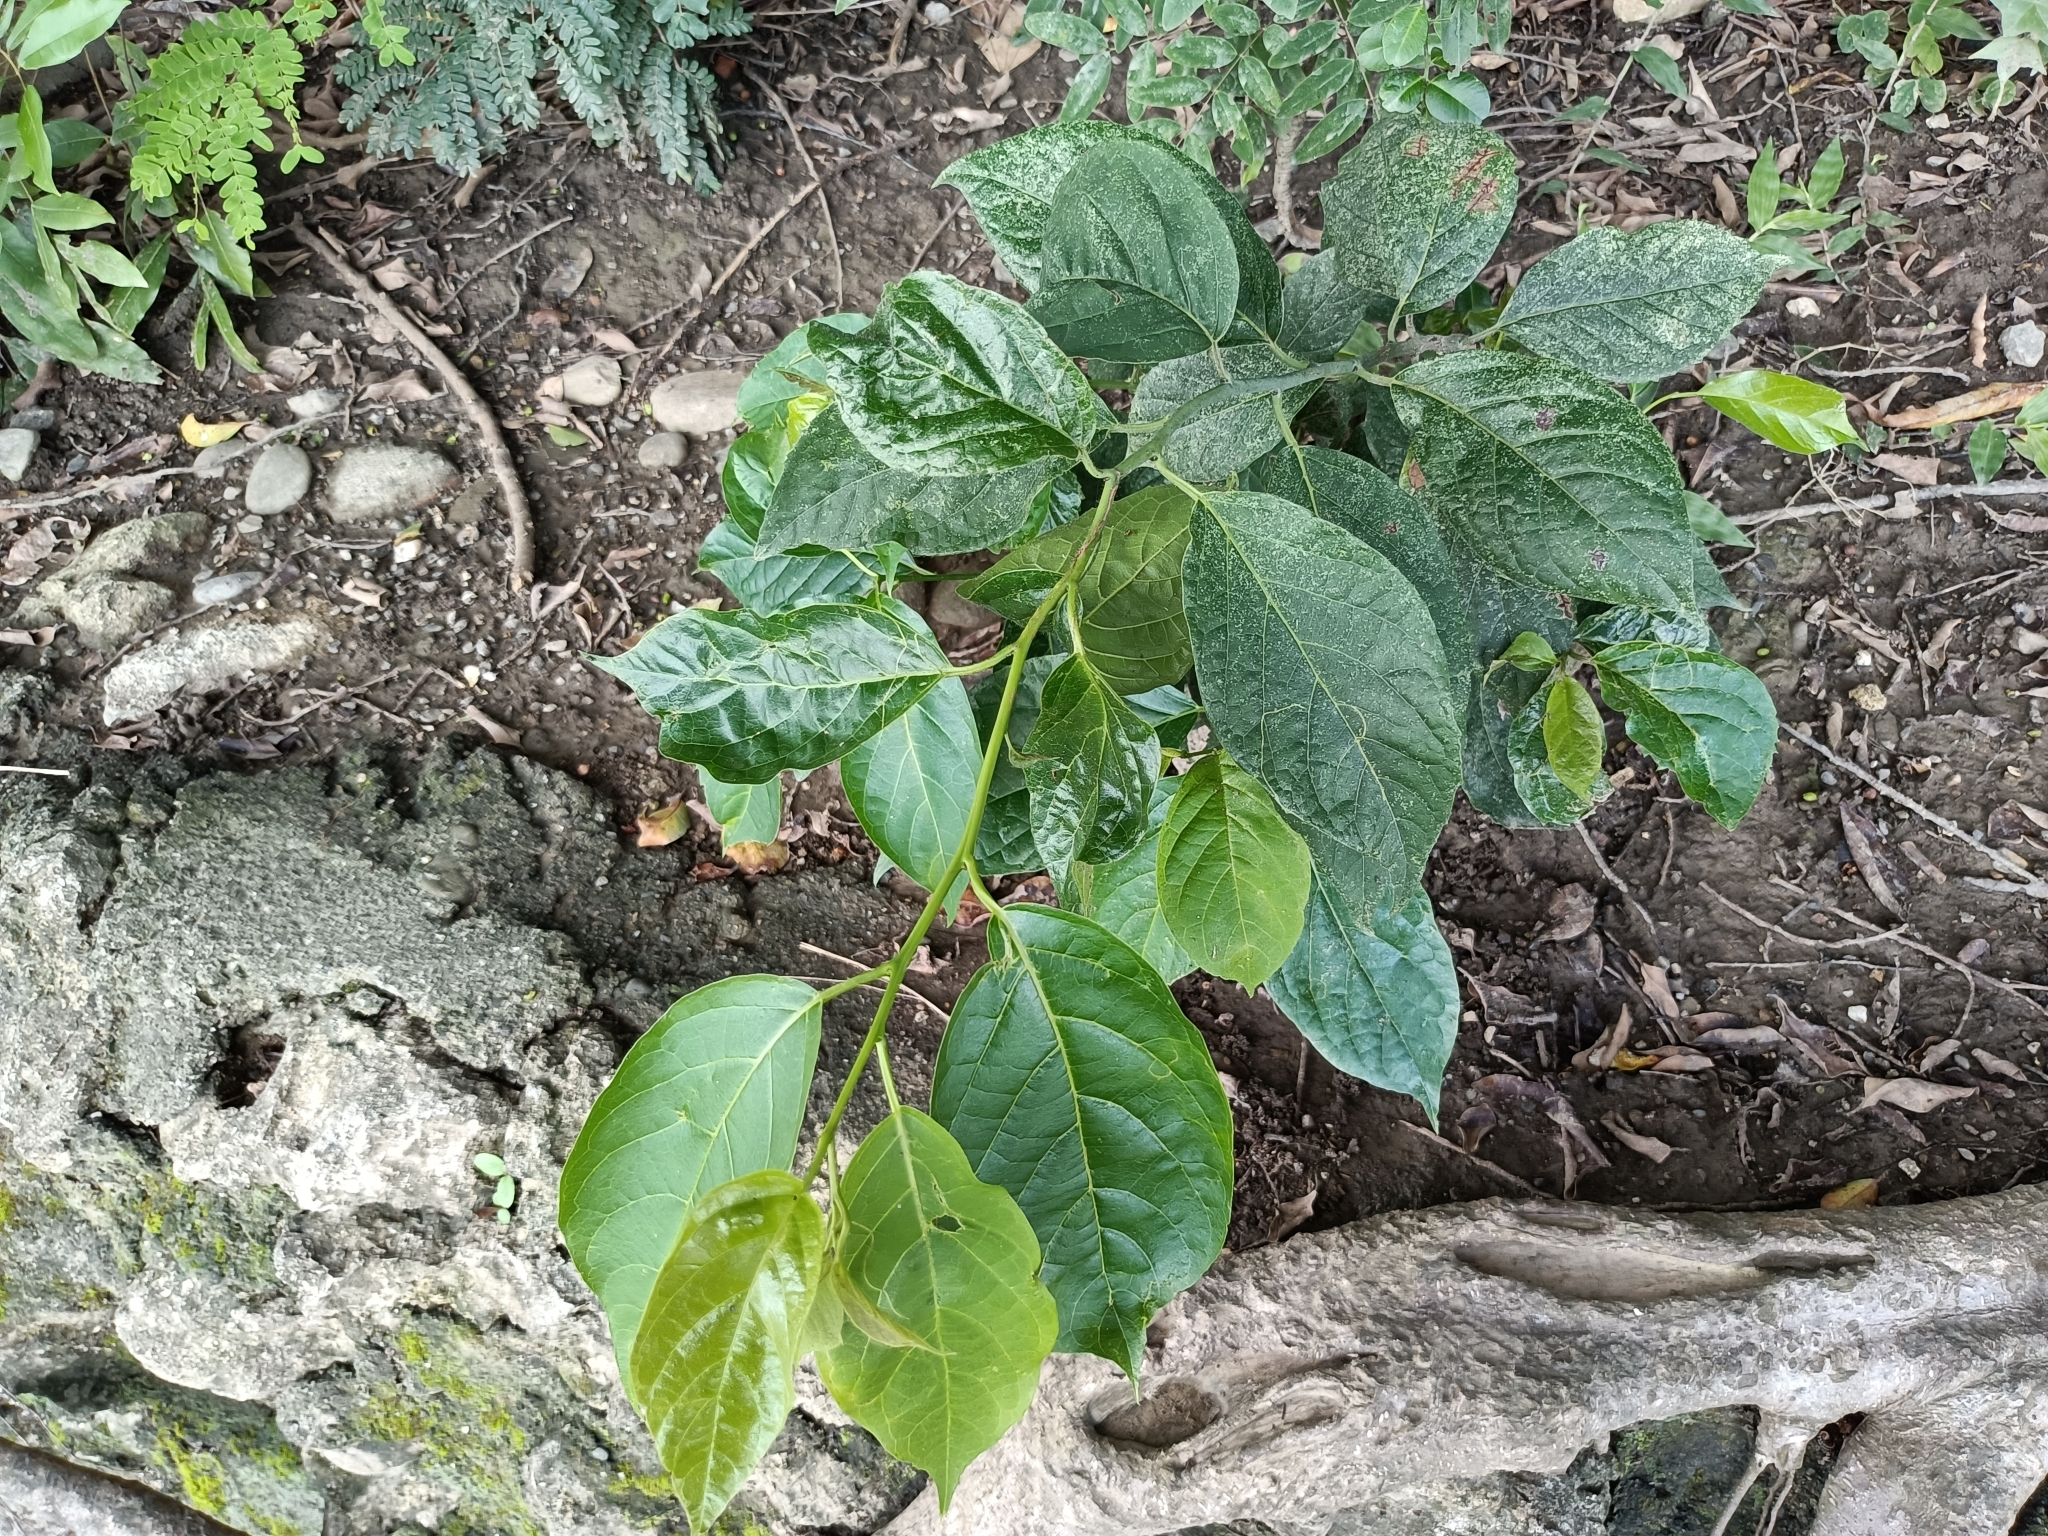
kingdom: Plantae
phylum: Tracheophyta
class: Magnoliopsida
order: Boraginales
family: Ehretiaceae
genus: Ehretia
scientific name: Ehretia resinosa
